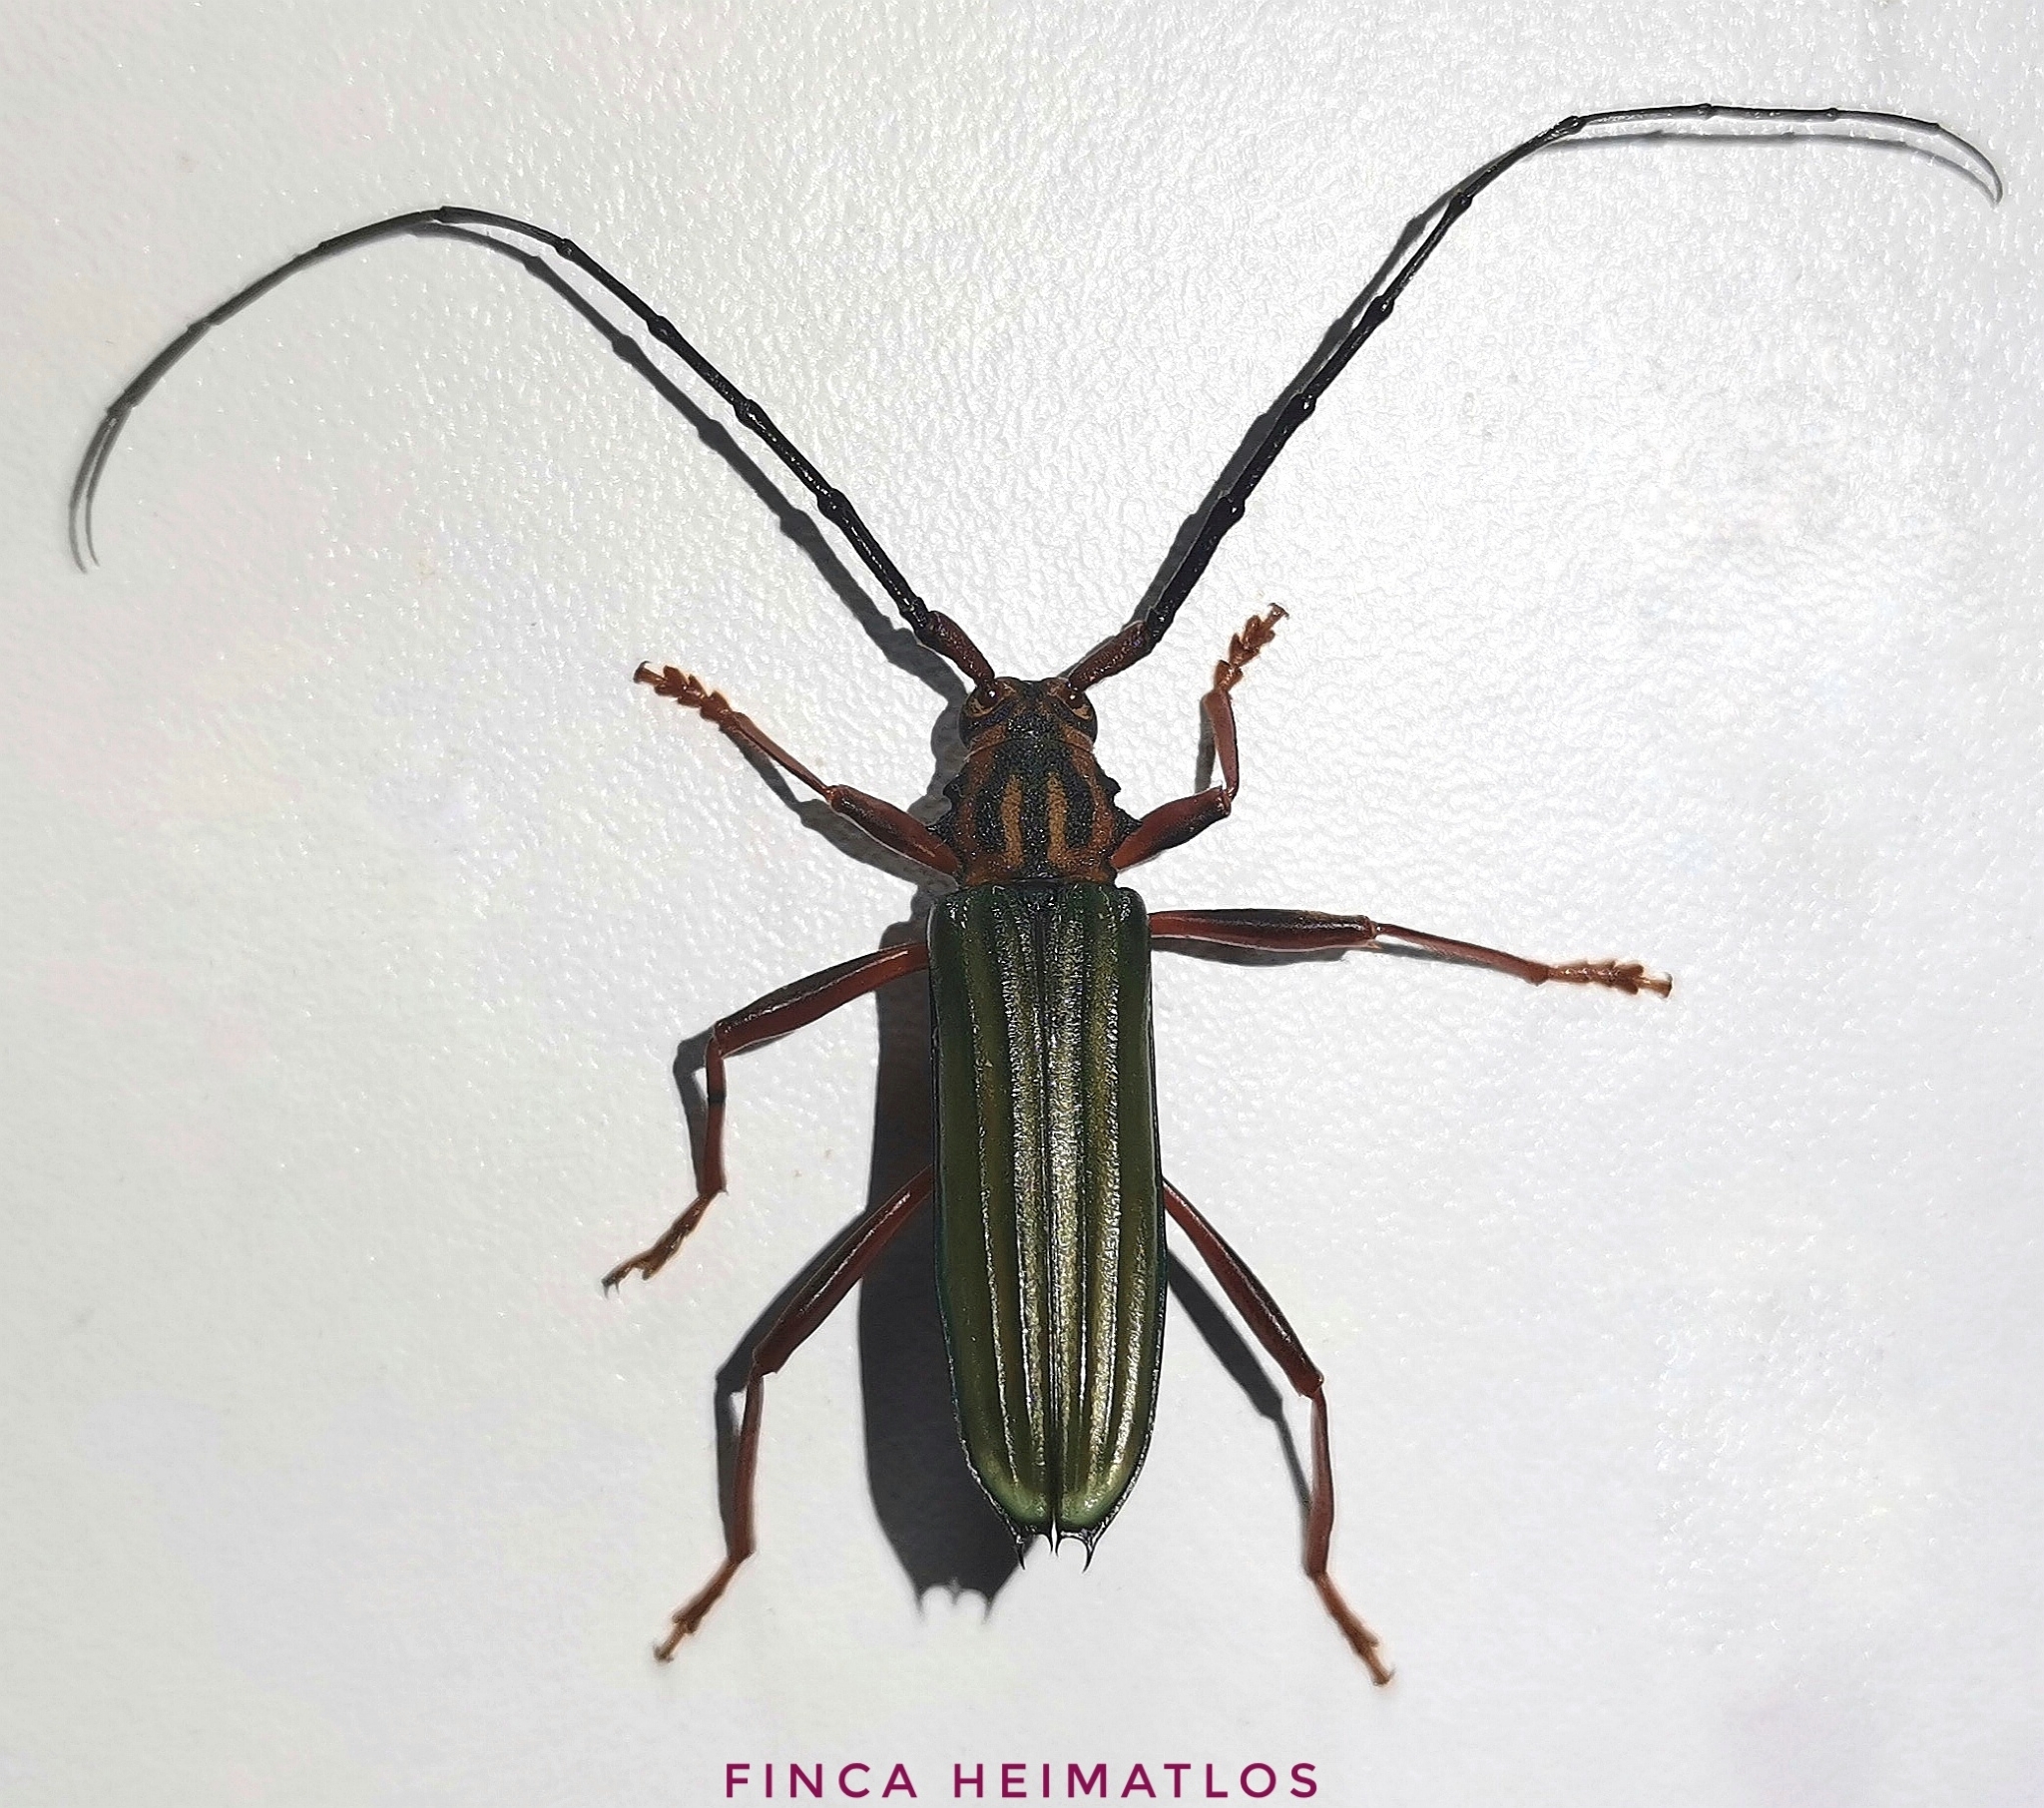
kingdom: Animalia
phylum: Arthropoda
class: Insecta
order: Coleoptera
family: Cerambycidae
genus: Chlorida
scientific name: Chlorida festiva
